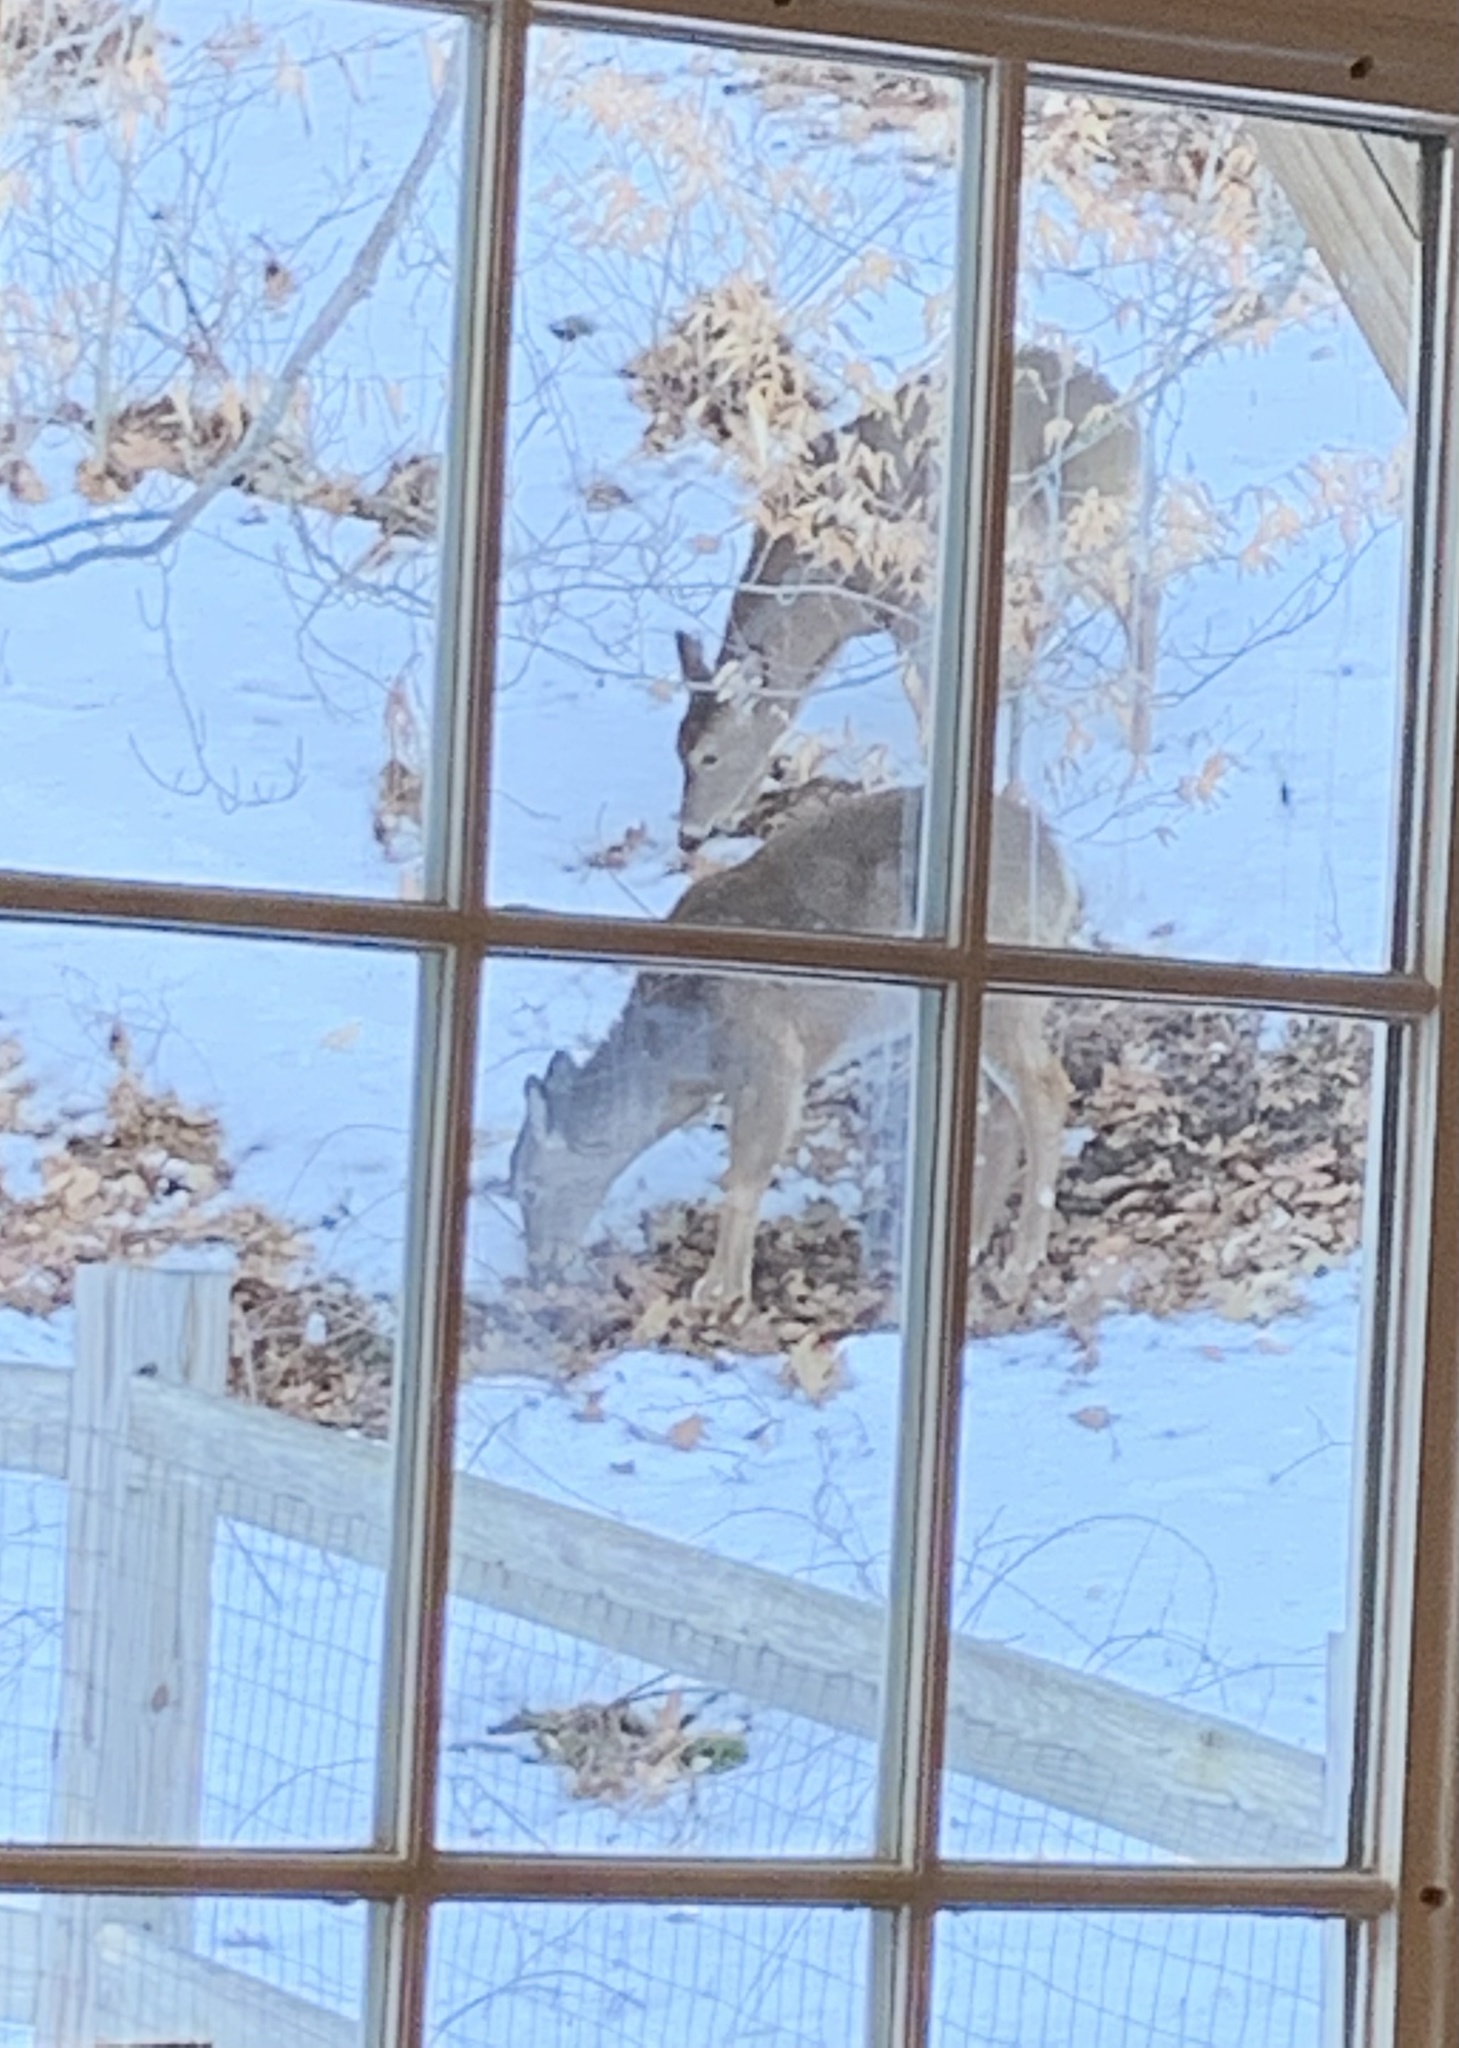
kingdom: Animalia
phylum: Chordata
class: Mammalia
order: Artiodactyla
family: Cervidae
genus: Odocoileus
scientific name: Odocoileus virginianus
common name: White-tailed deer
